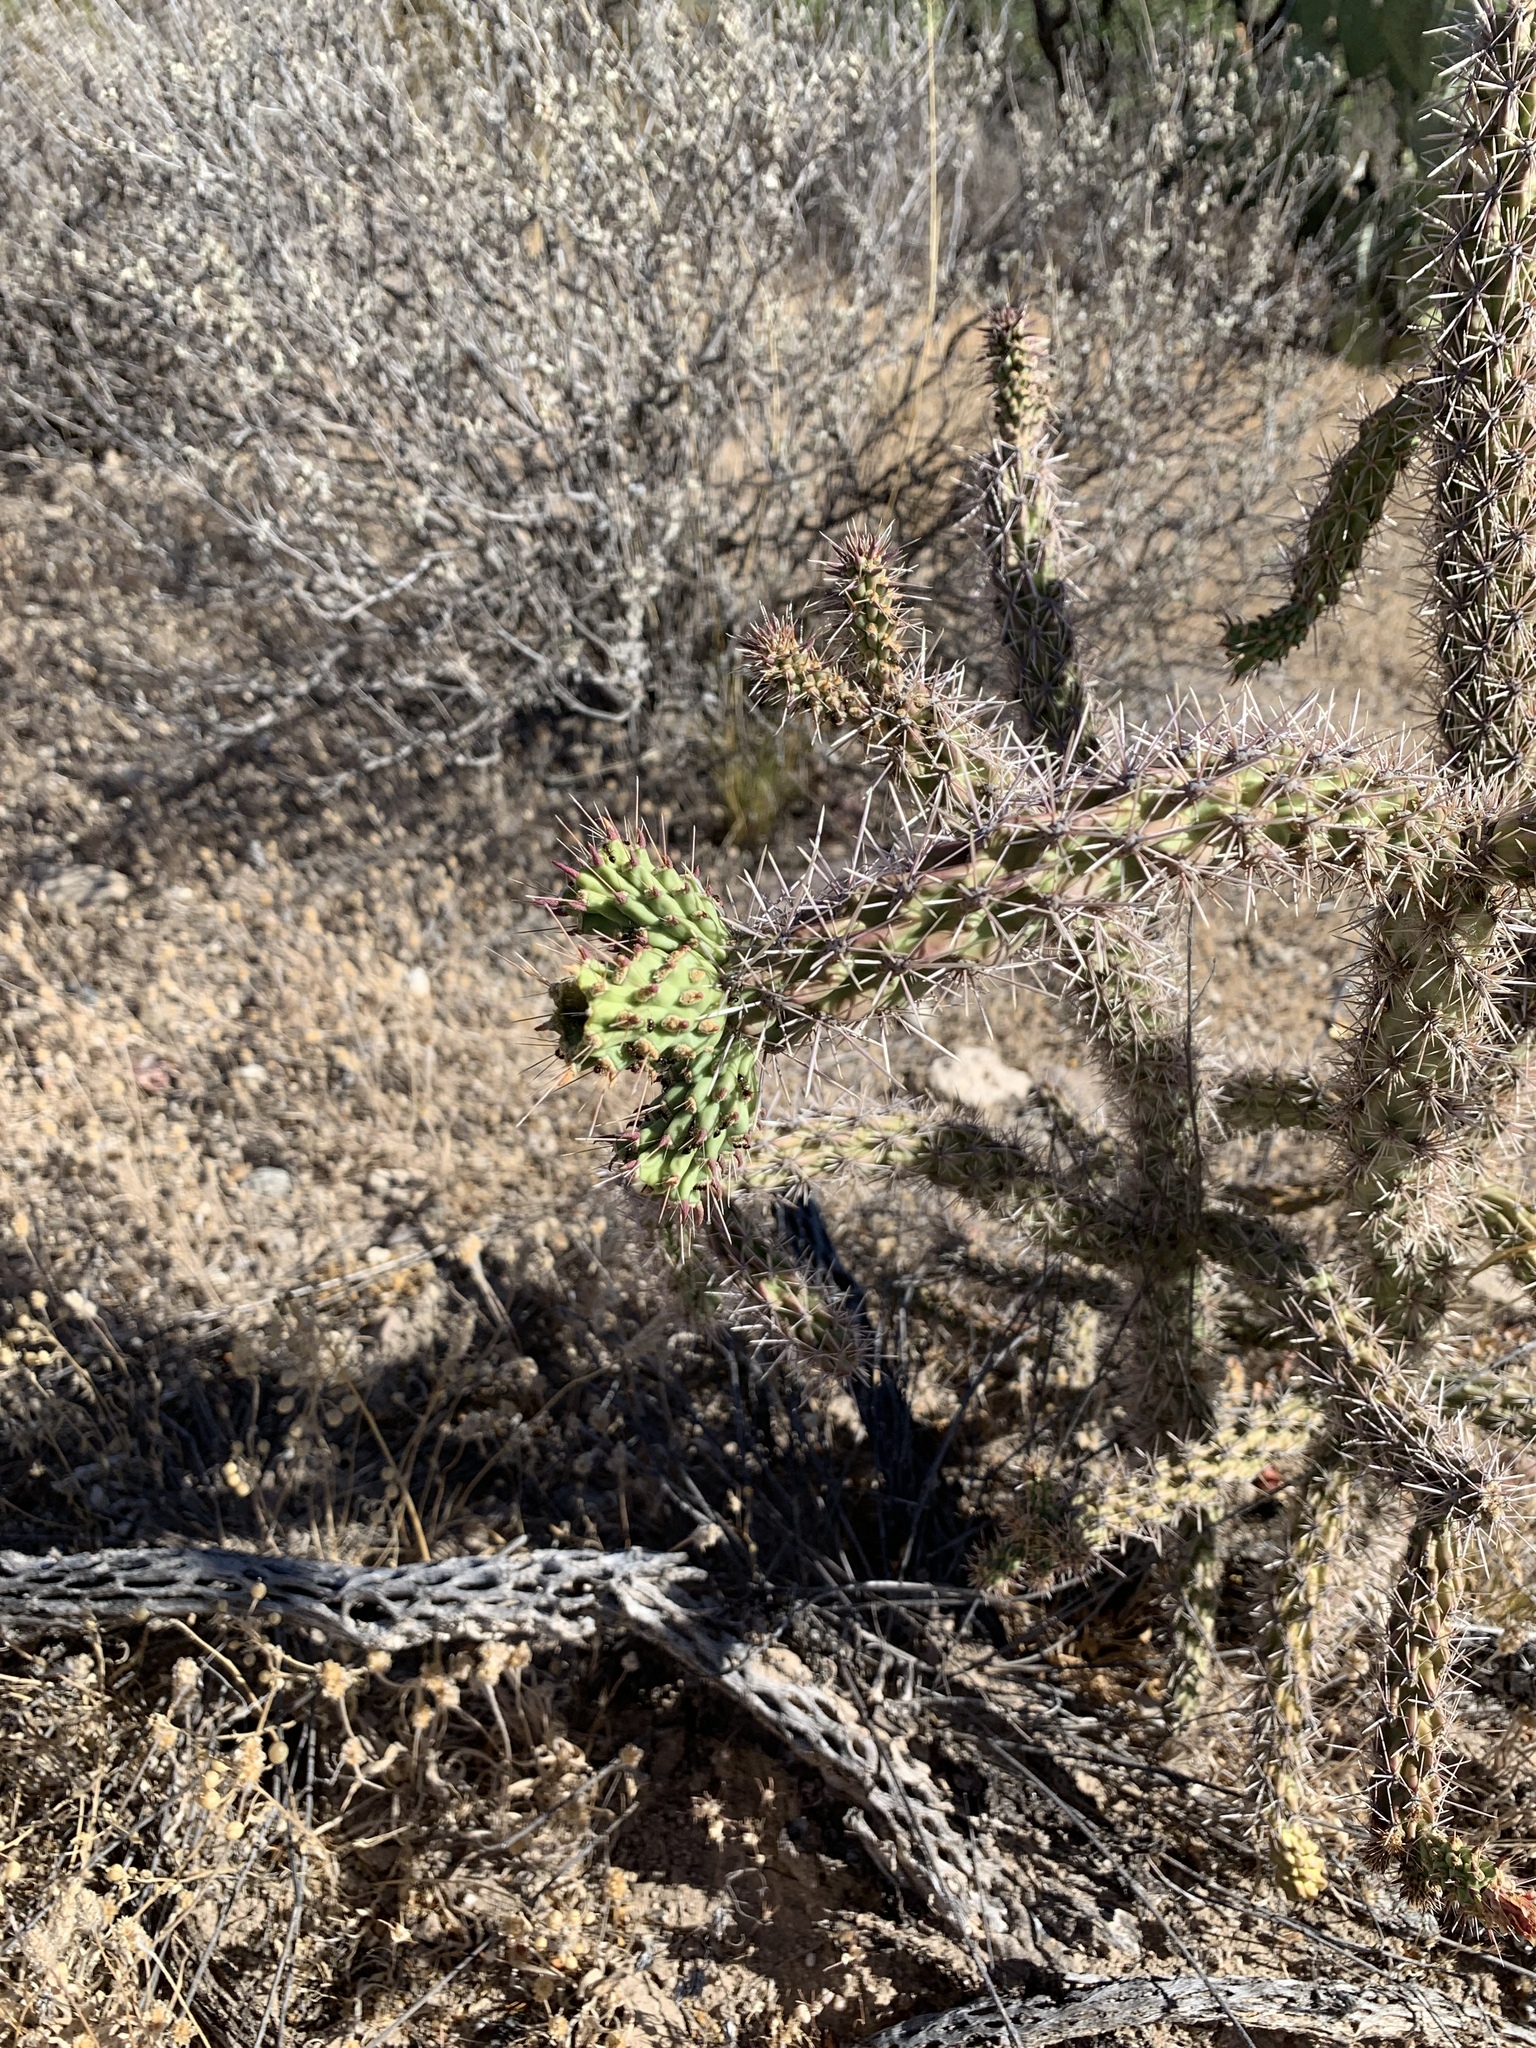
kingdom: Plantae
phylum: Tracheophyta
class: Magnoliopsida
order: Caryophyllales
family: Cactaceae
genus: Cylindropuntia
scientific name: Cylindropuntia acanthocarpa
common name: Buckhorn cholla
